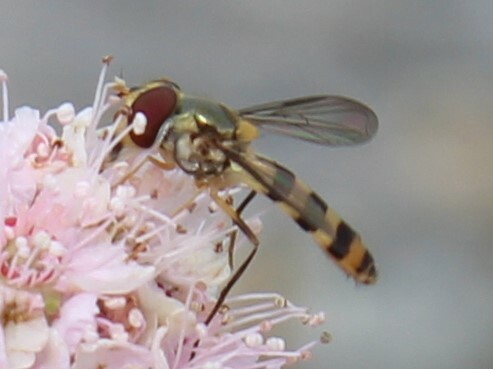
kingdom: Animalia
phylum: Arthropoda
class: Insecta
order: Diptera
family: Syrphidae
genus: Meliscaeva
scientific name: Meliscaeva cinctella
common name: American thintail fly
